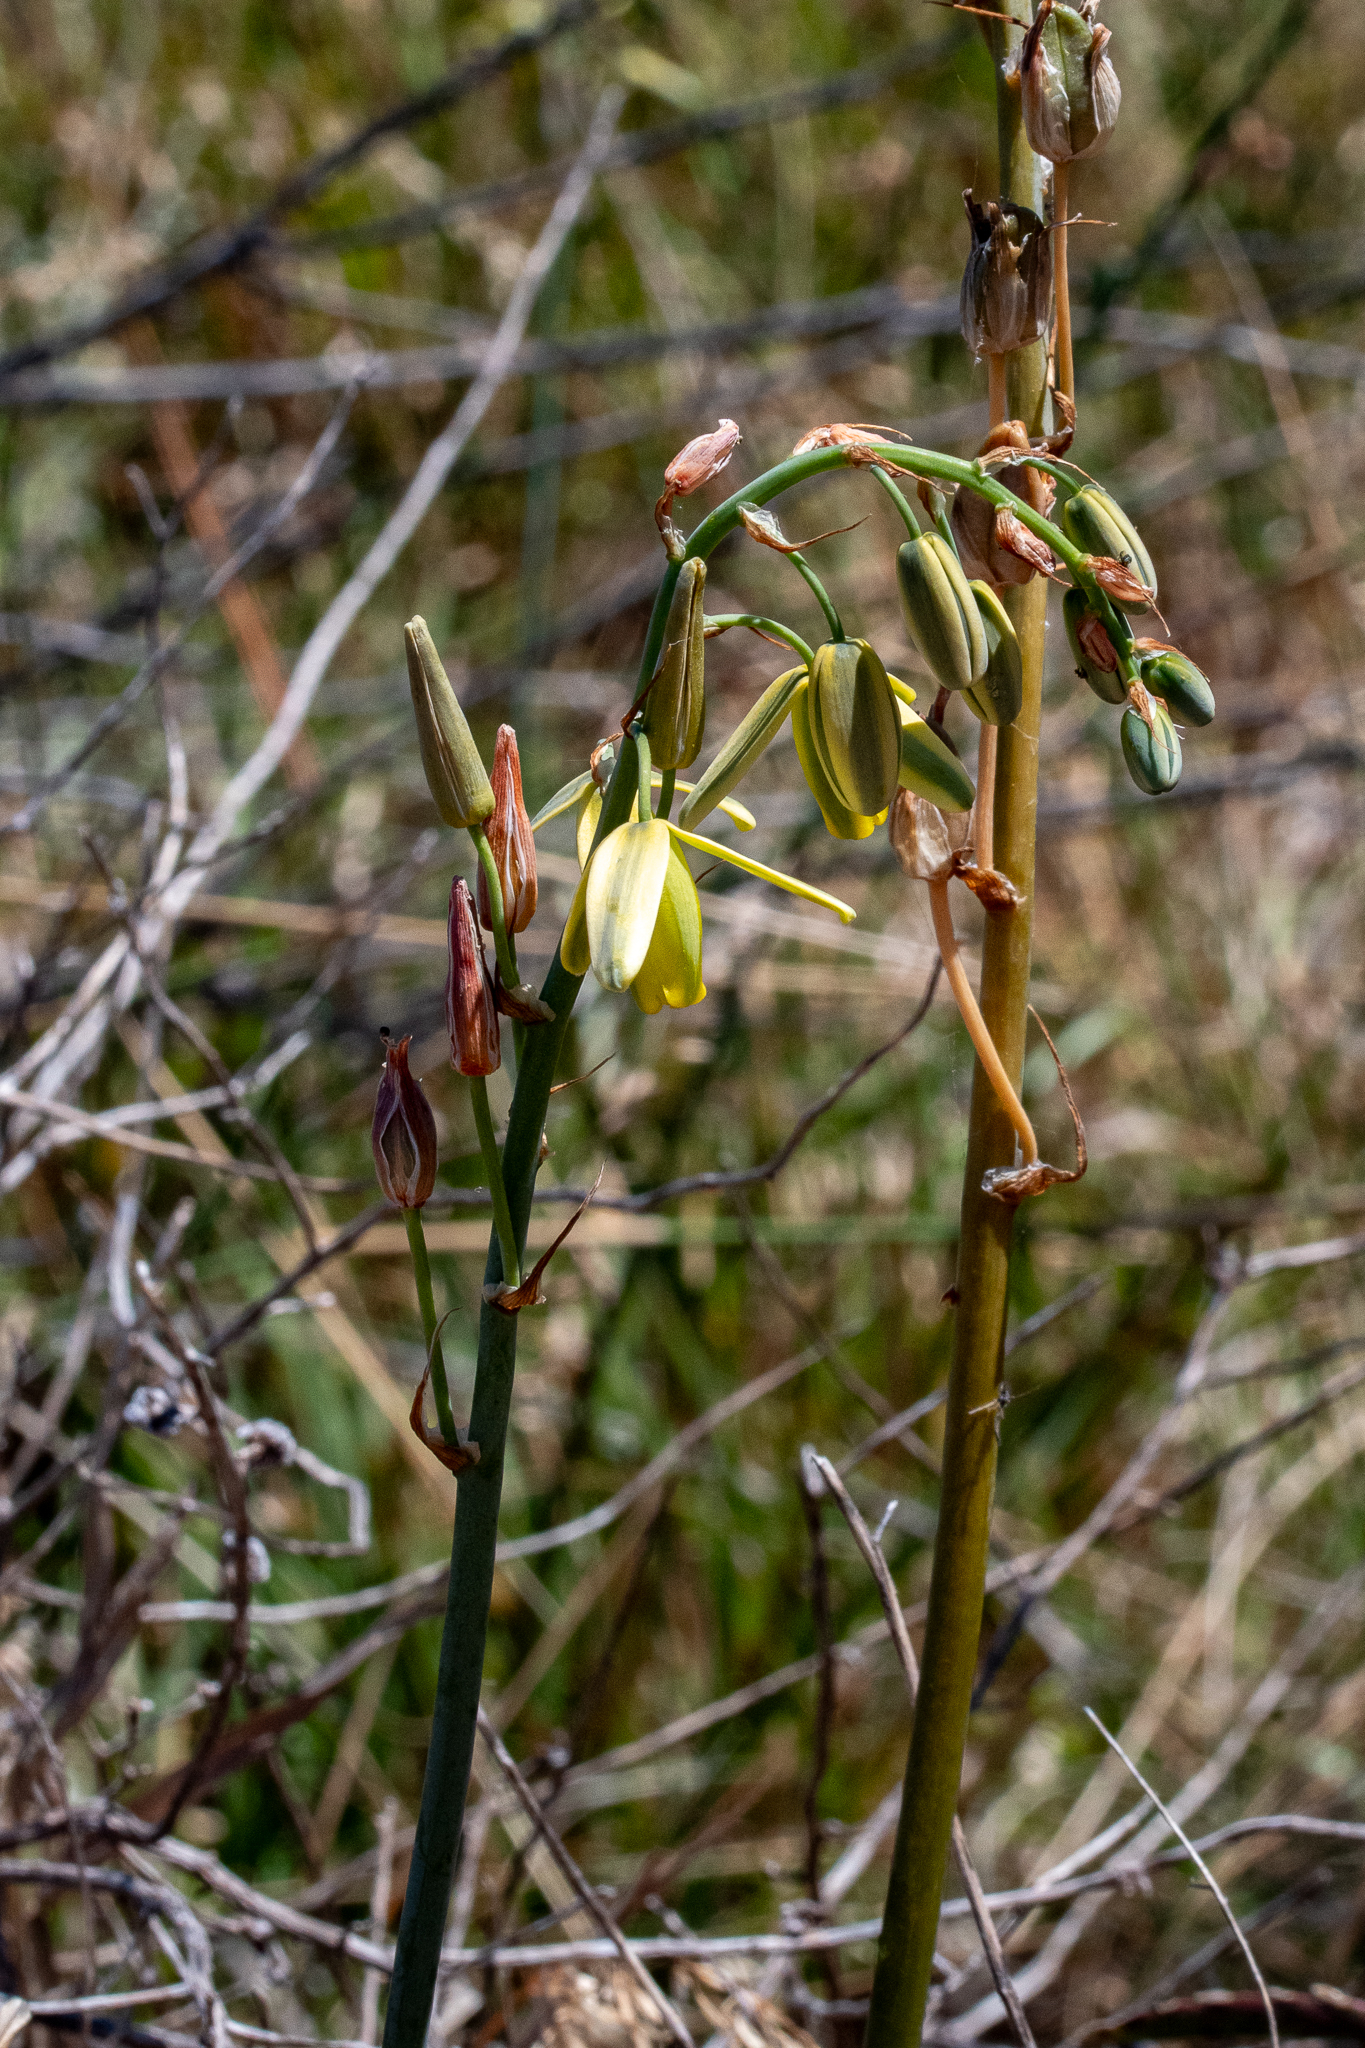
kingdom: Plantae
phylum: Tracheophyta
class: Liliopsida
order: Asparagales
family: Asparagaceae
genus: Albuca
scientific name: Albuca flaccida
